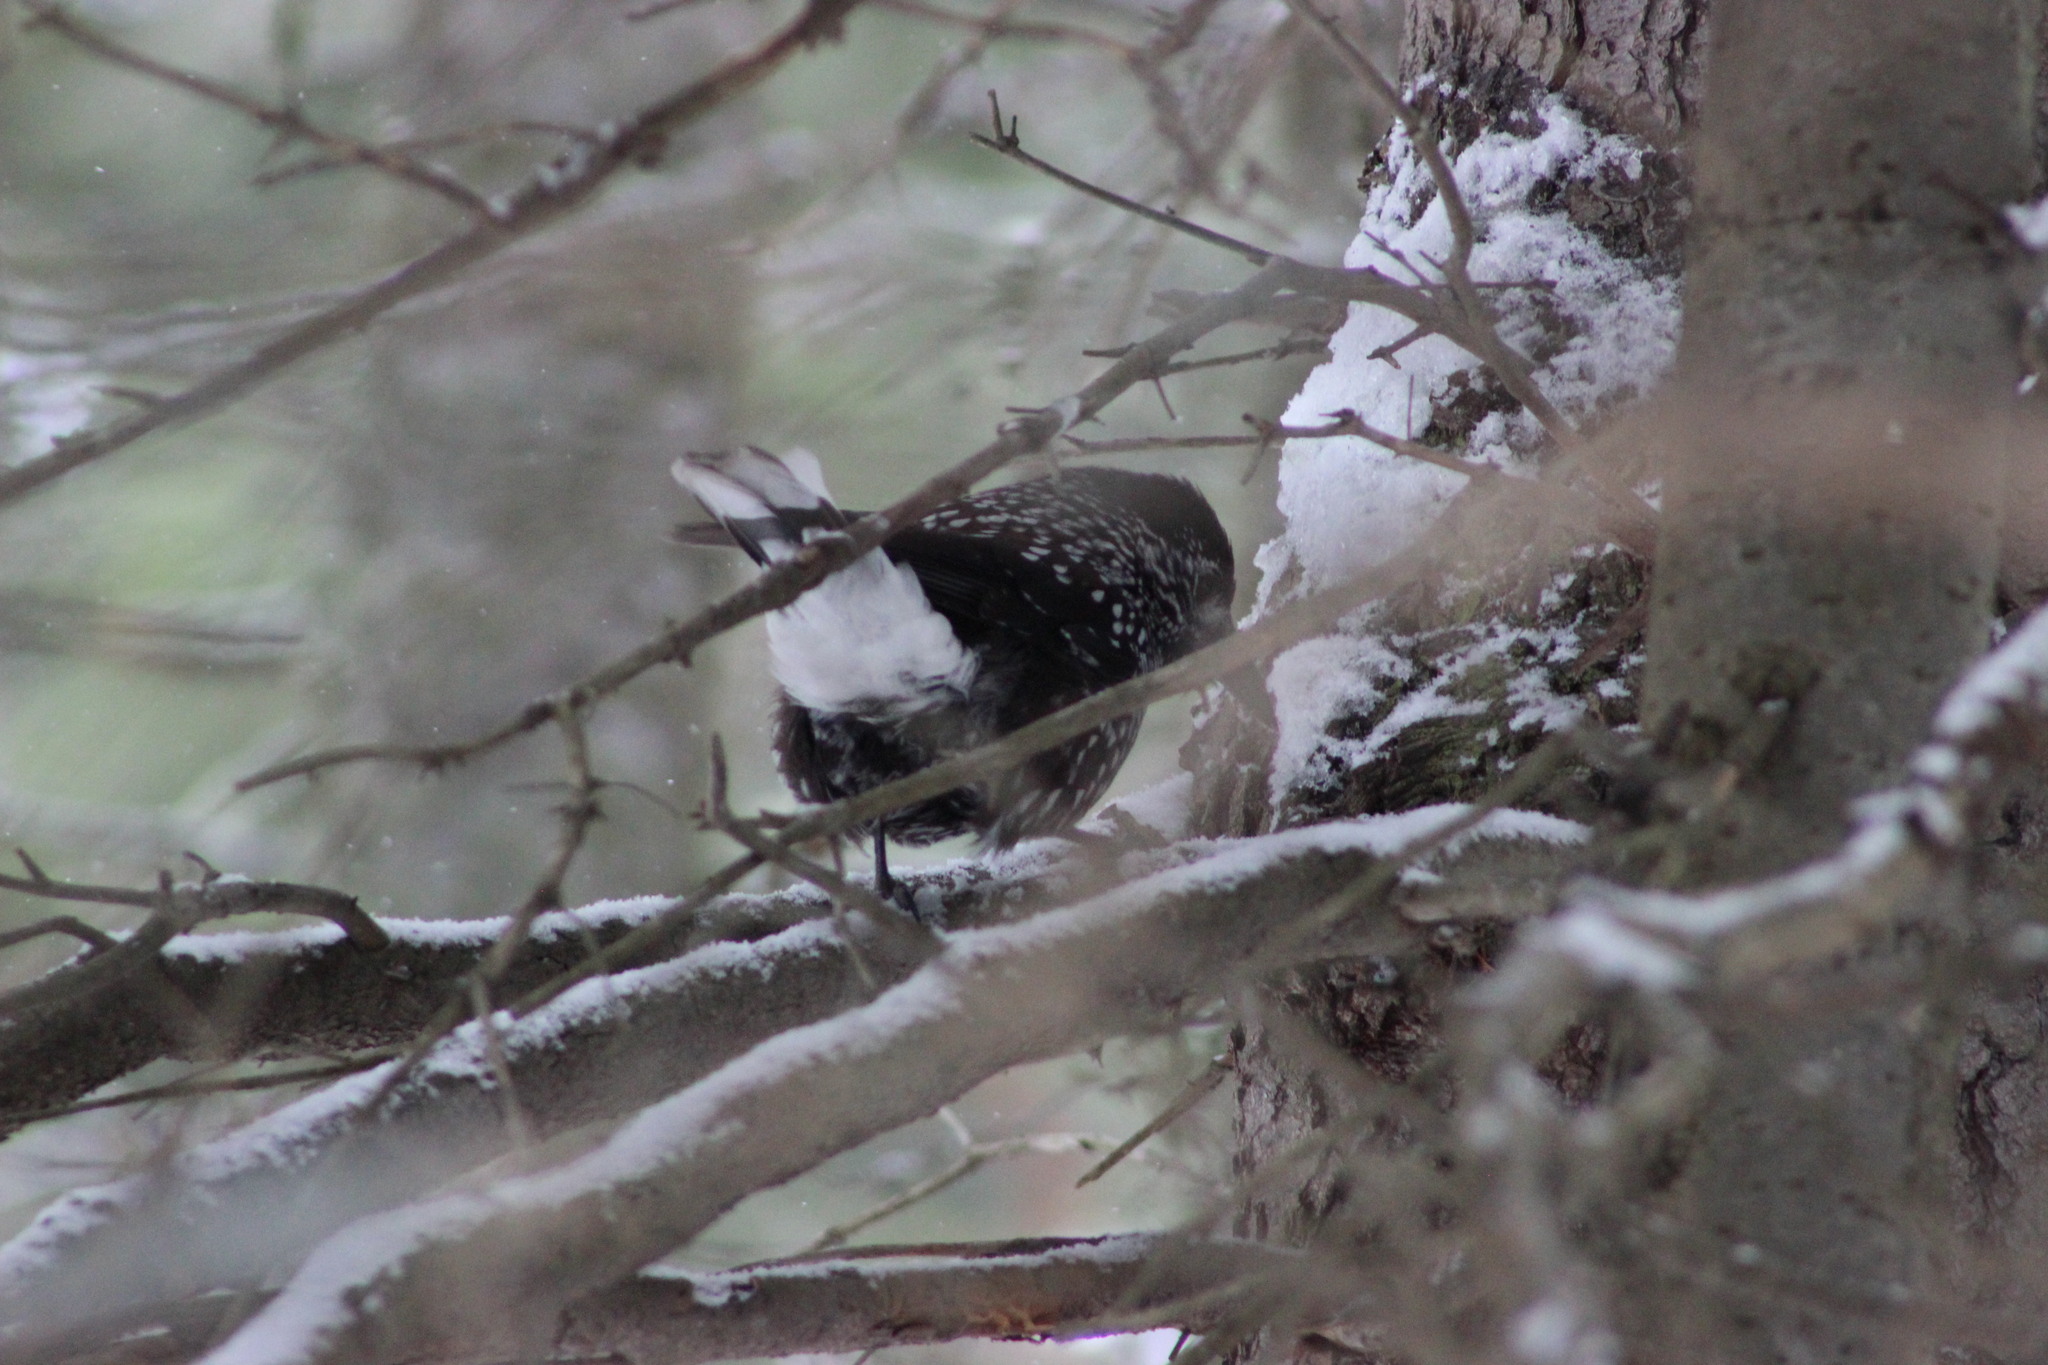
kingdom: Animalia
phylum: Chordata
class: Aves
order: Passeriformes
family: Corvidae
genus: Nucifraga
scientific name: Nucifraga caryocatactes
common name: Spotted nutcracker
